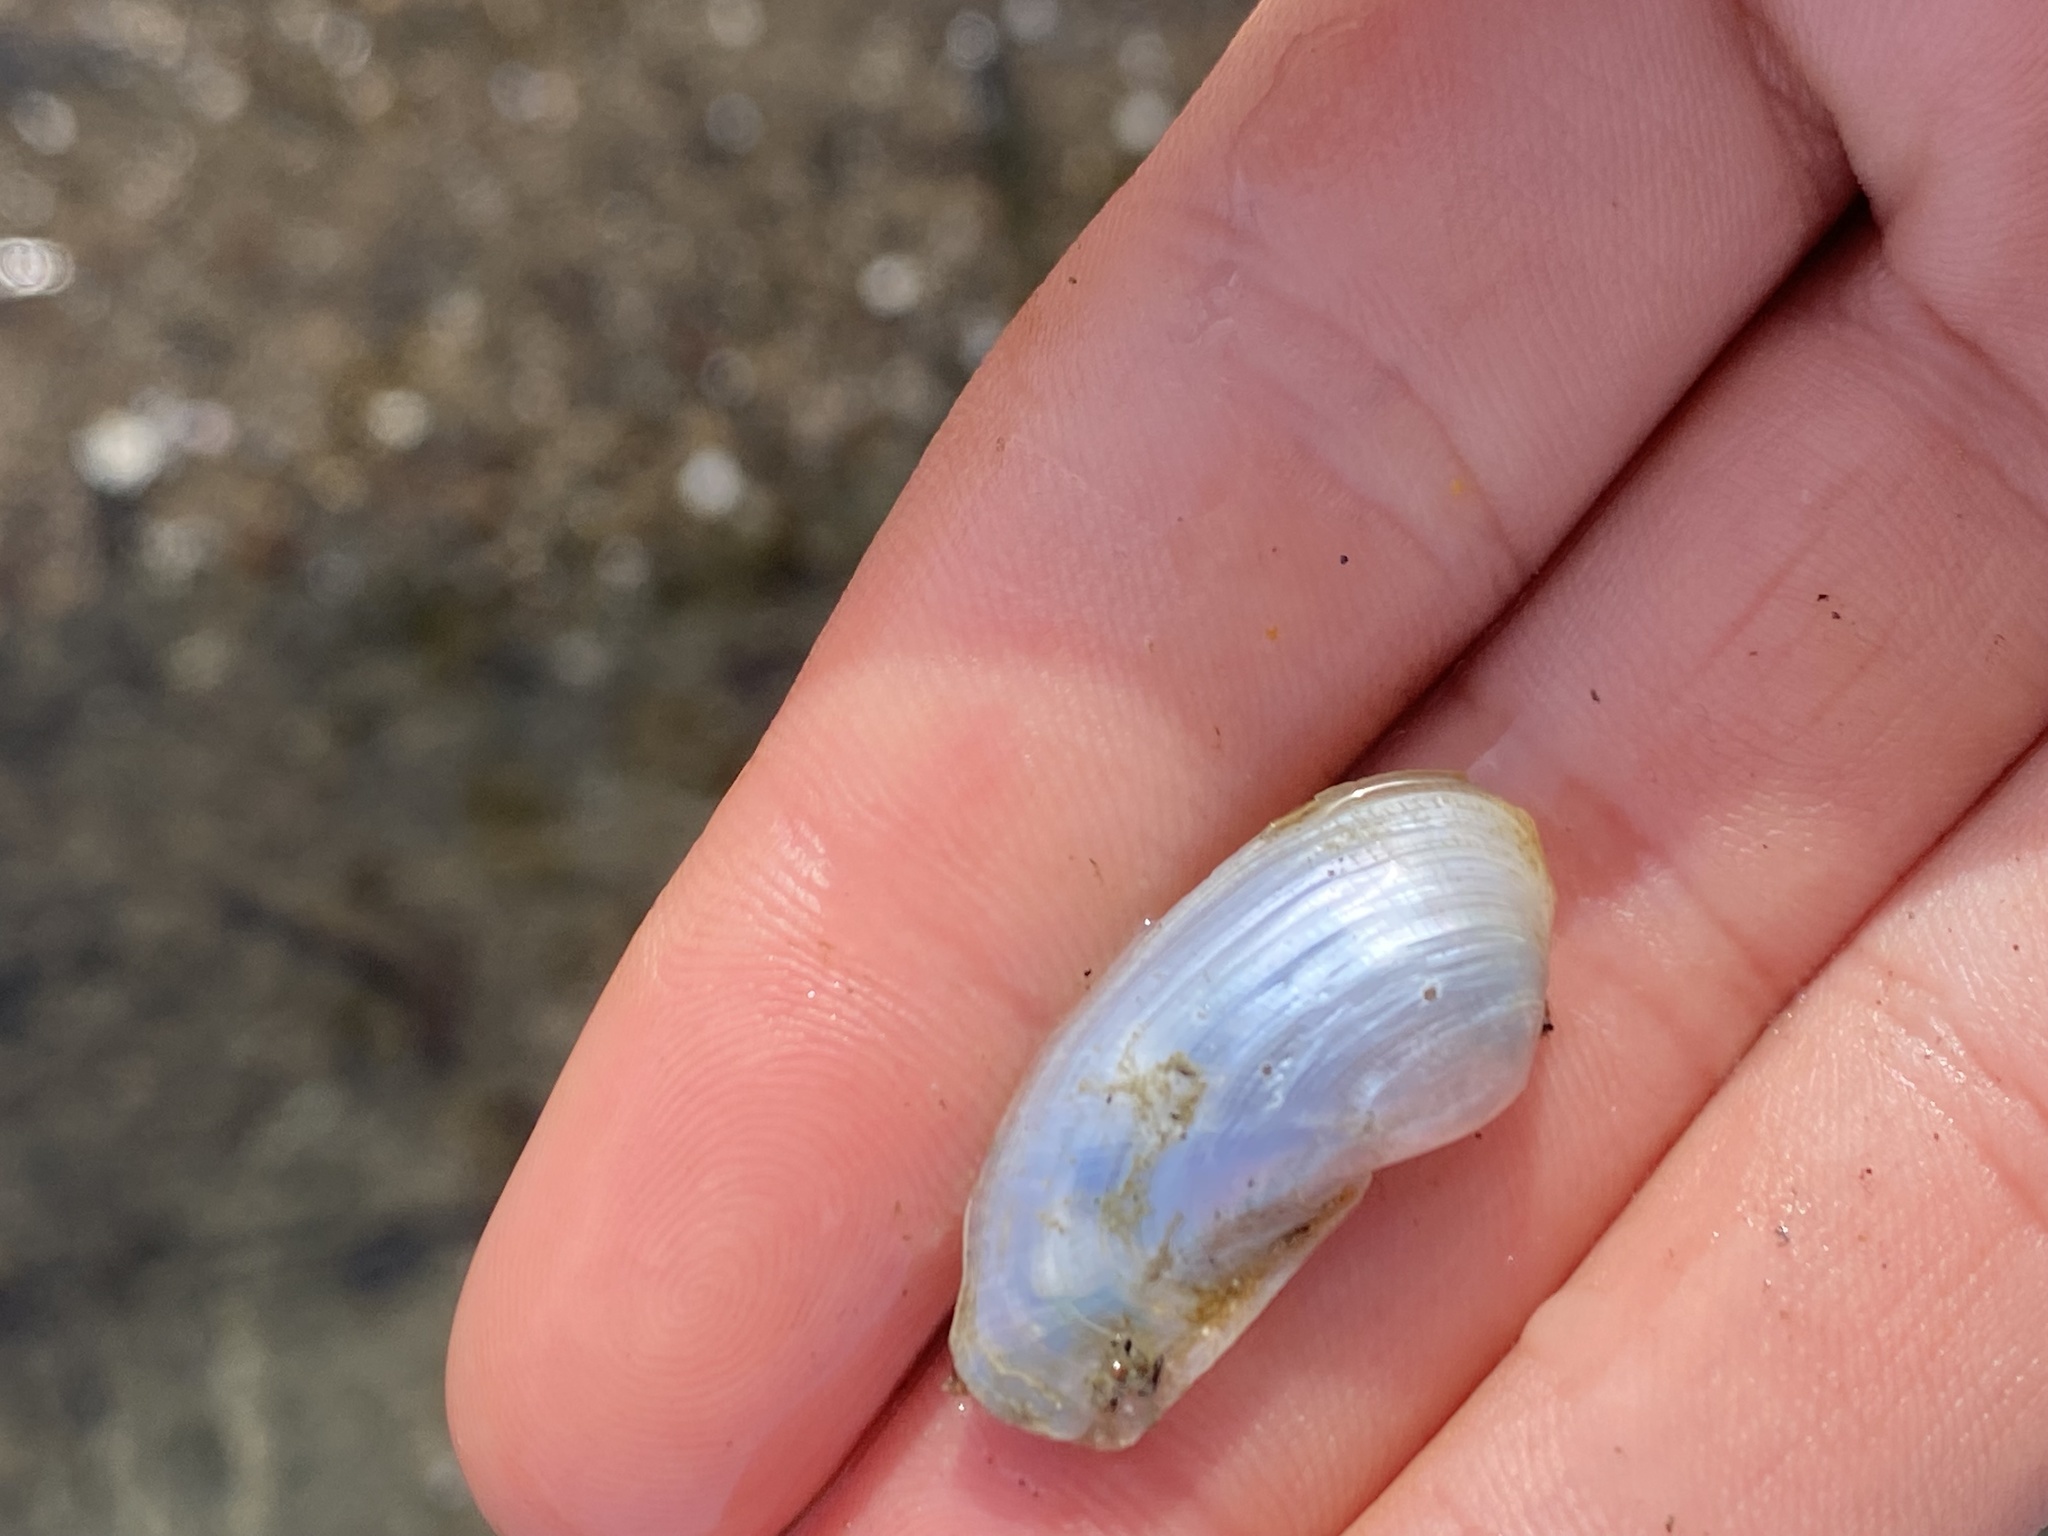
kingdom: Animalia
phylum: Mollusca
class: Bivalvia
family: Lyonsiidae
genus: Lyonsia
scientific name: Lyonsia californica
